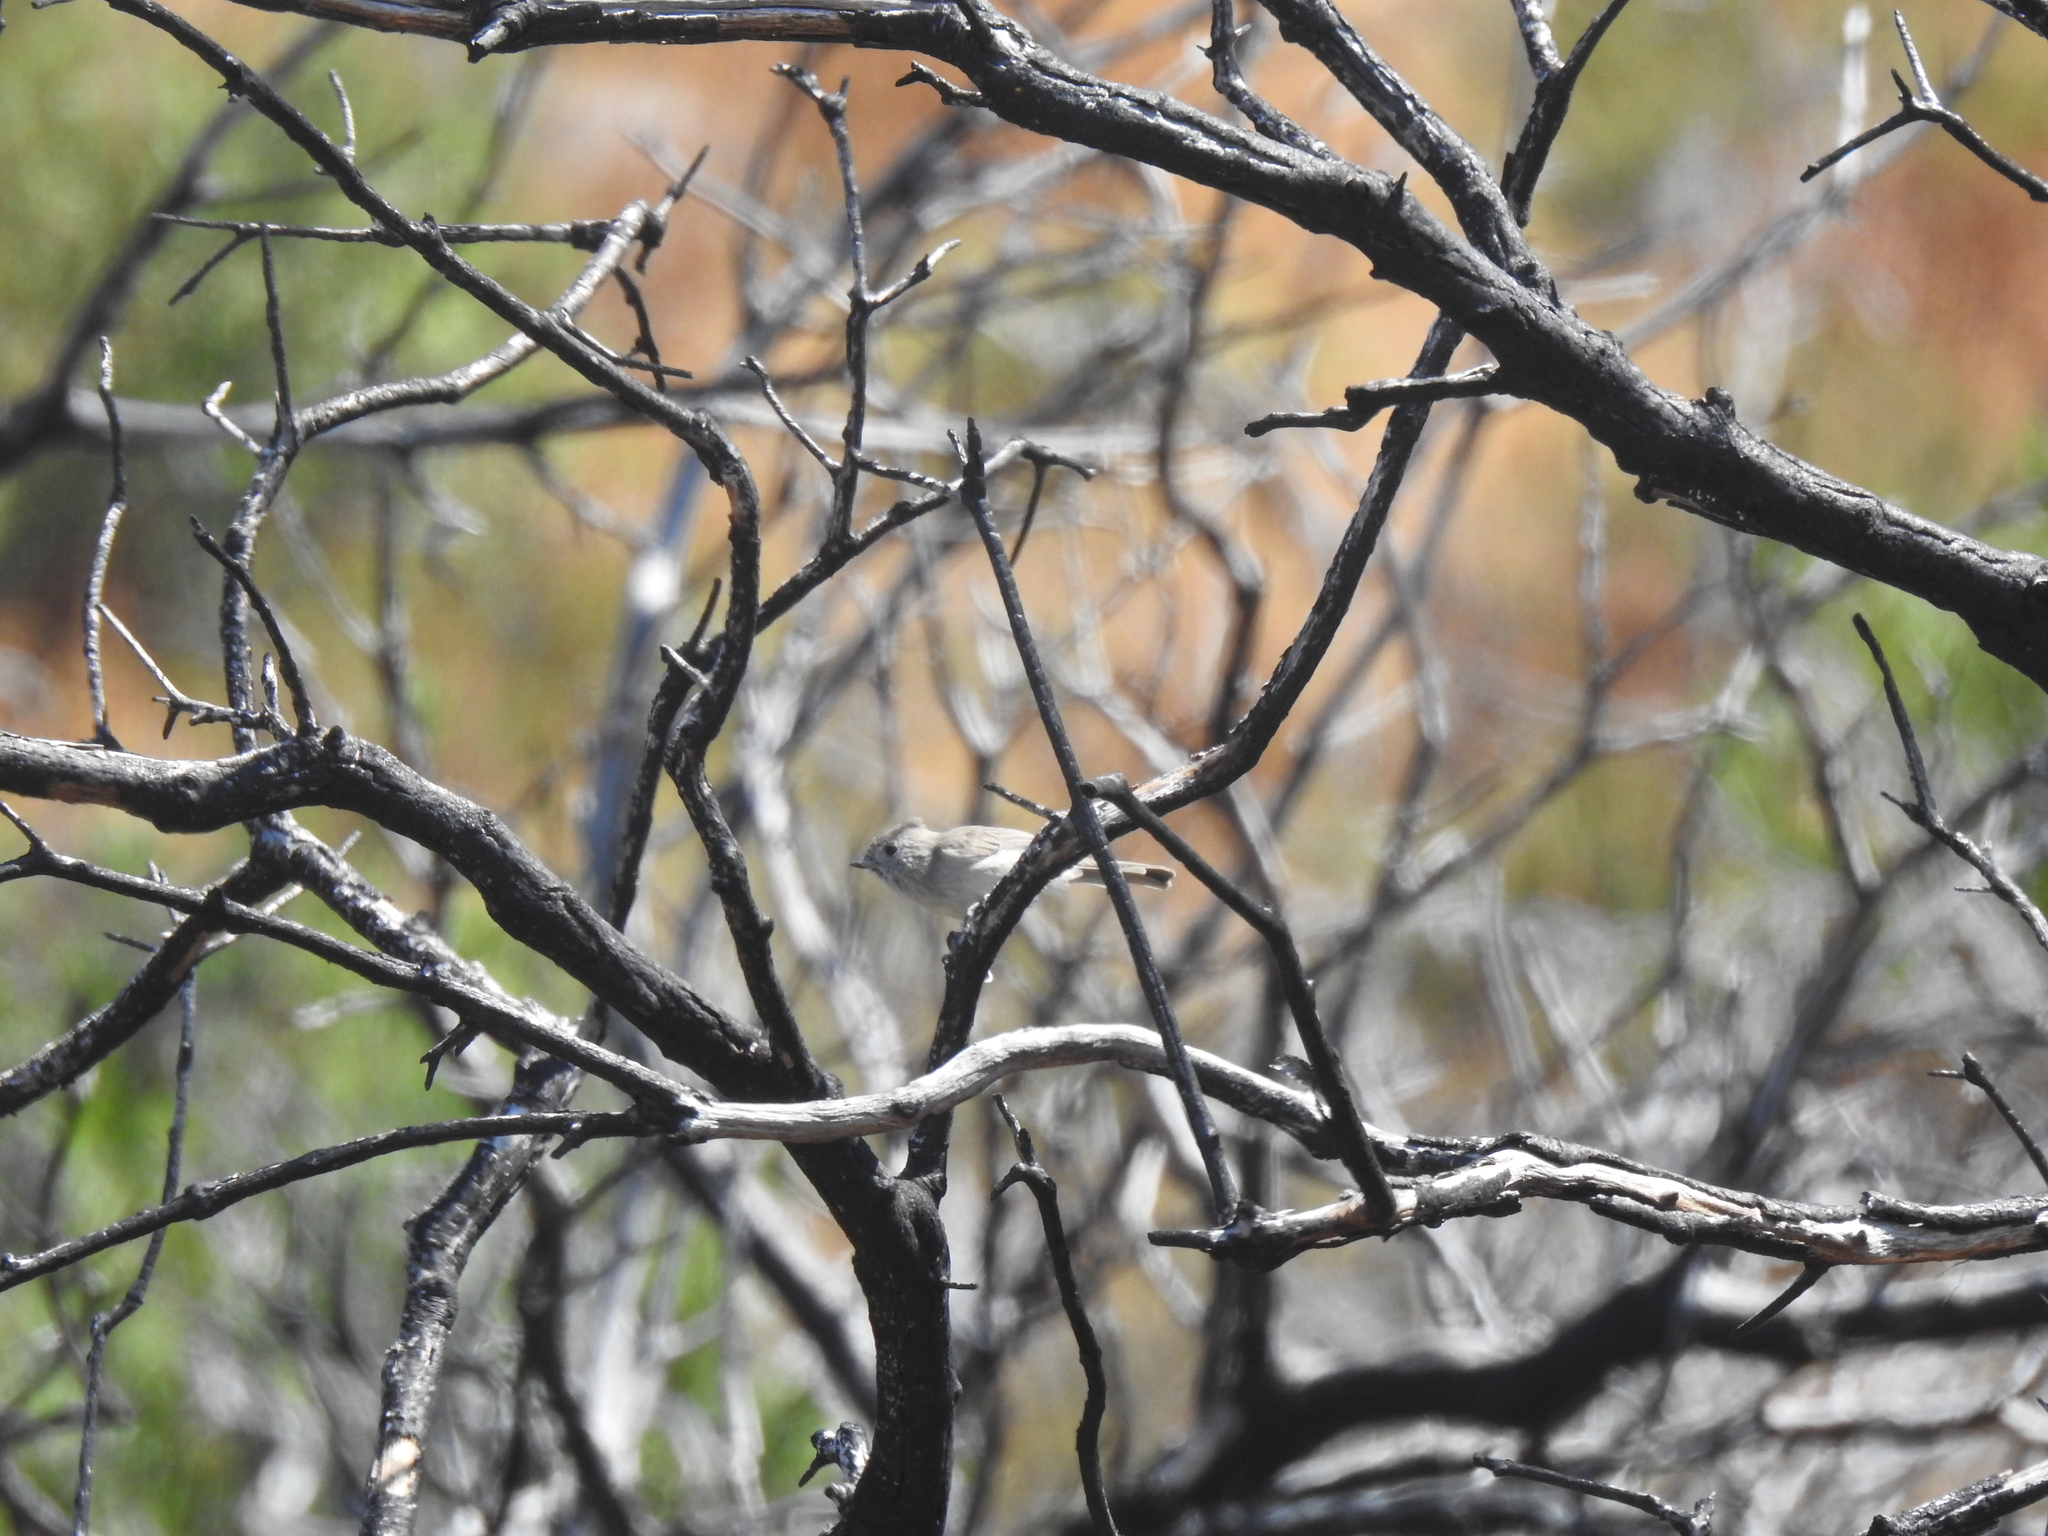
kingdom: Animalia
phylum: Chordata
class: Aves
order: Passeriformes
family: Paridae
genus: Baeolophus
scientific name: Baeolophus inornatus
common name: Oak titmouse
